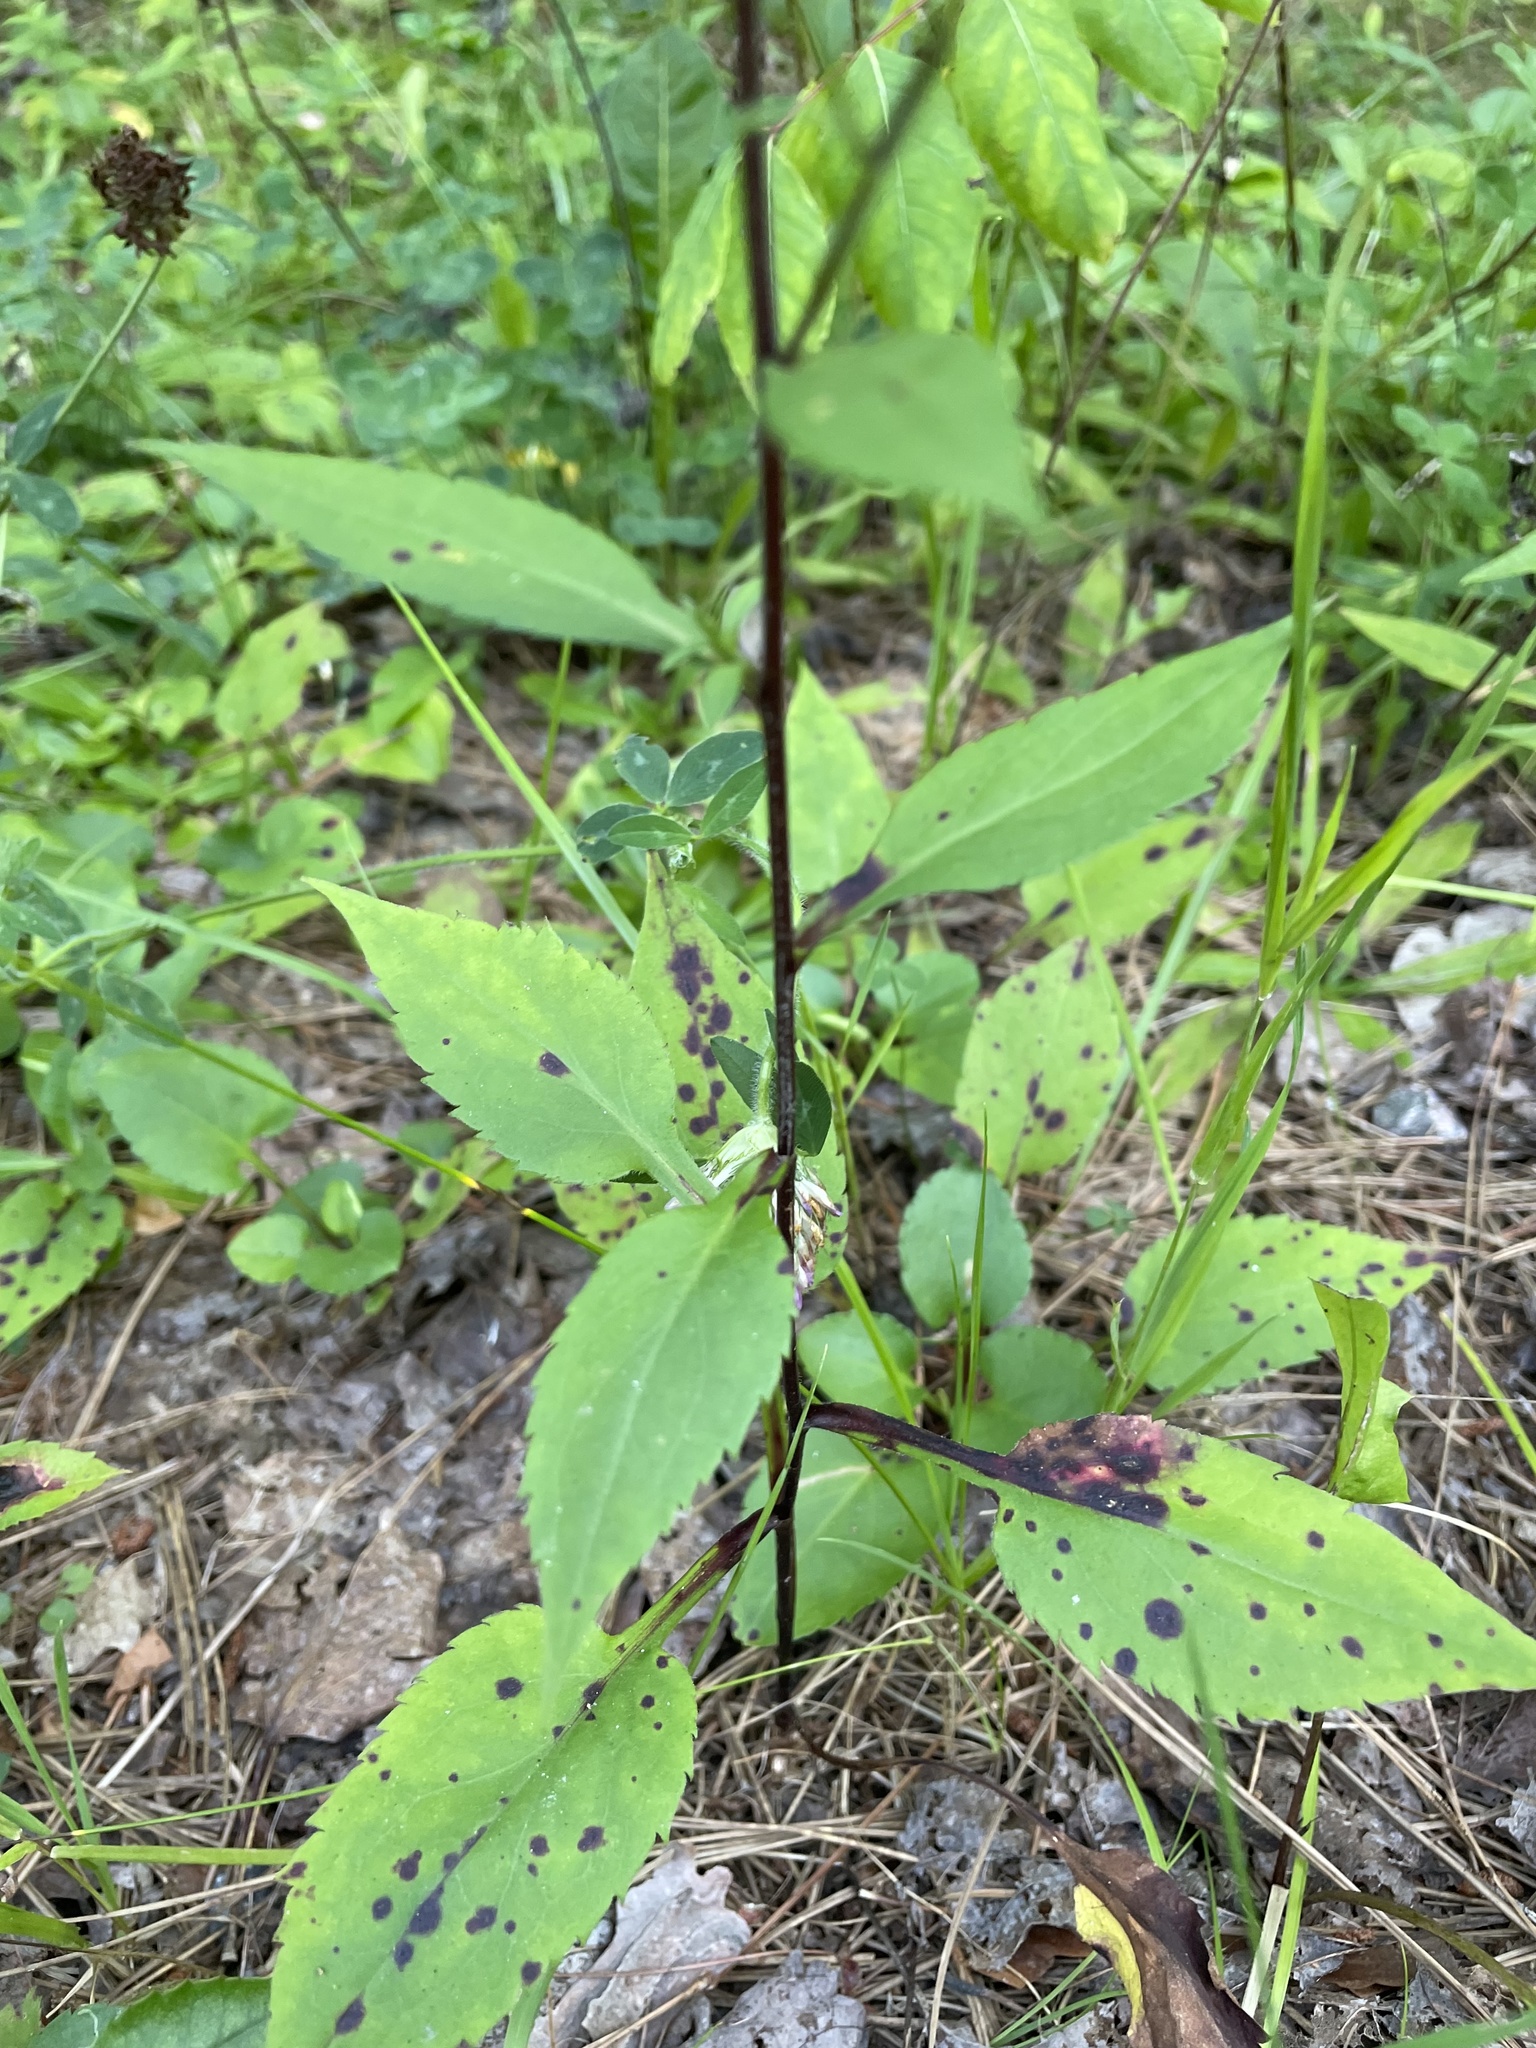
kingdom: Plantae
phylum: Tracheophyta
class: Magnoliopsida
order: Asterales
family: Asteraceae
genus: Symphyotrichum
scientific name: Symphyotrichum ciliolatum
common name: Fringed blue aster
